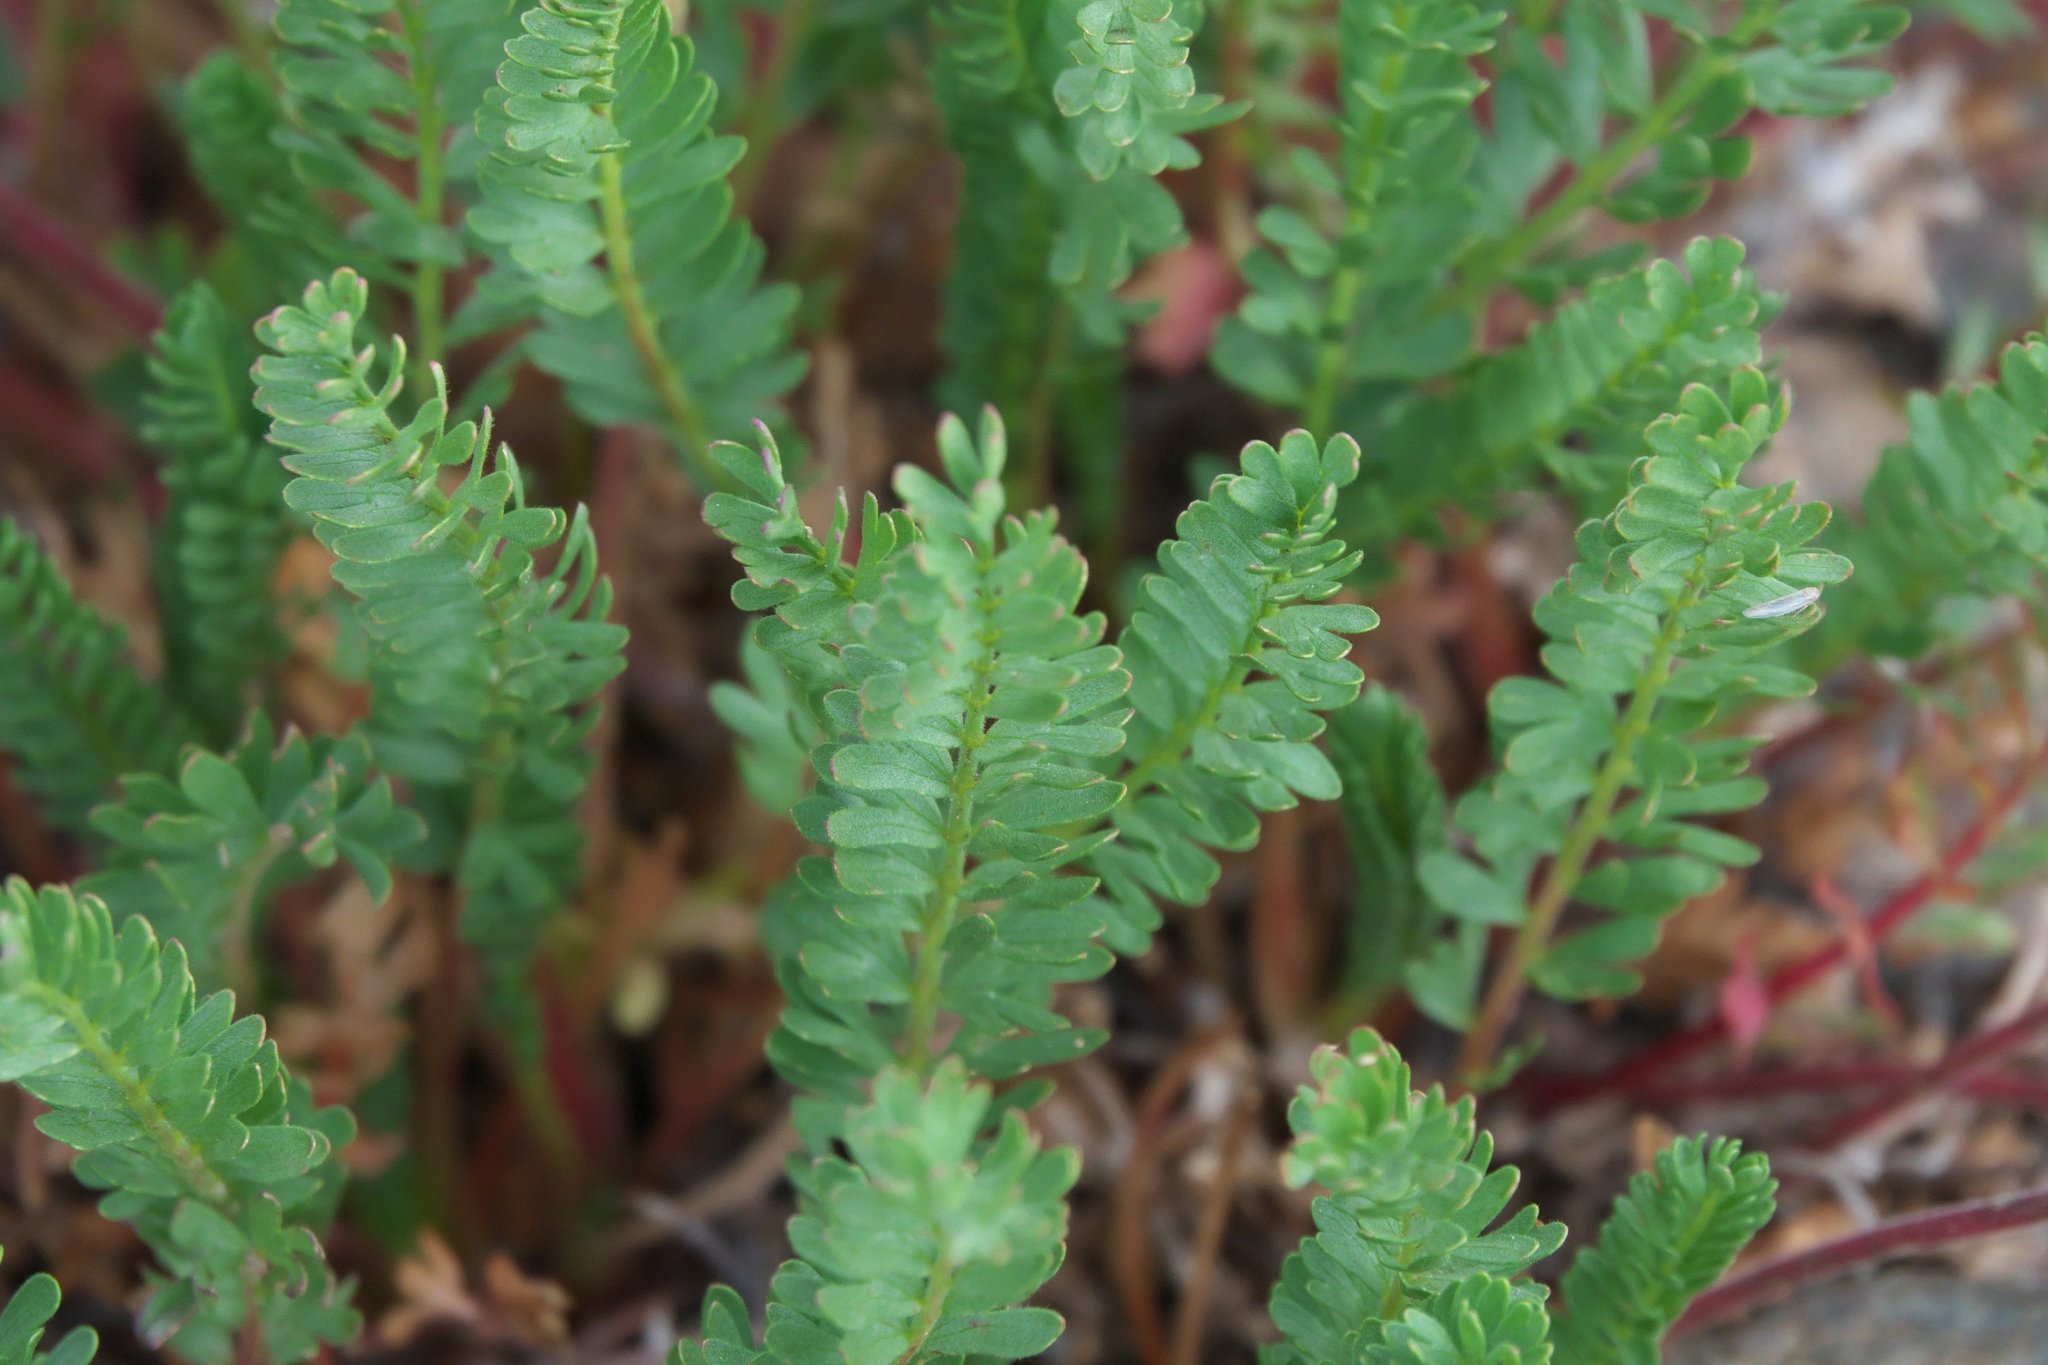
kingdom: Plantae
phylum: Tracheophyta
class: Magnoliopsida
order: Rosales
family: Rosaceae
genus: Potentilla
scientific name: Potentilla gordonii
